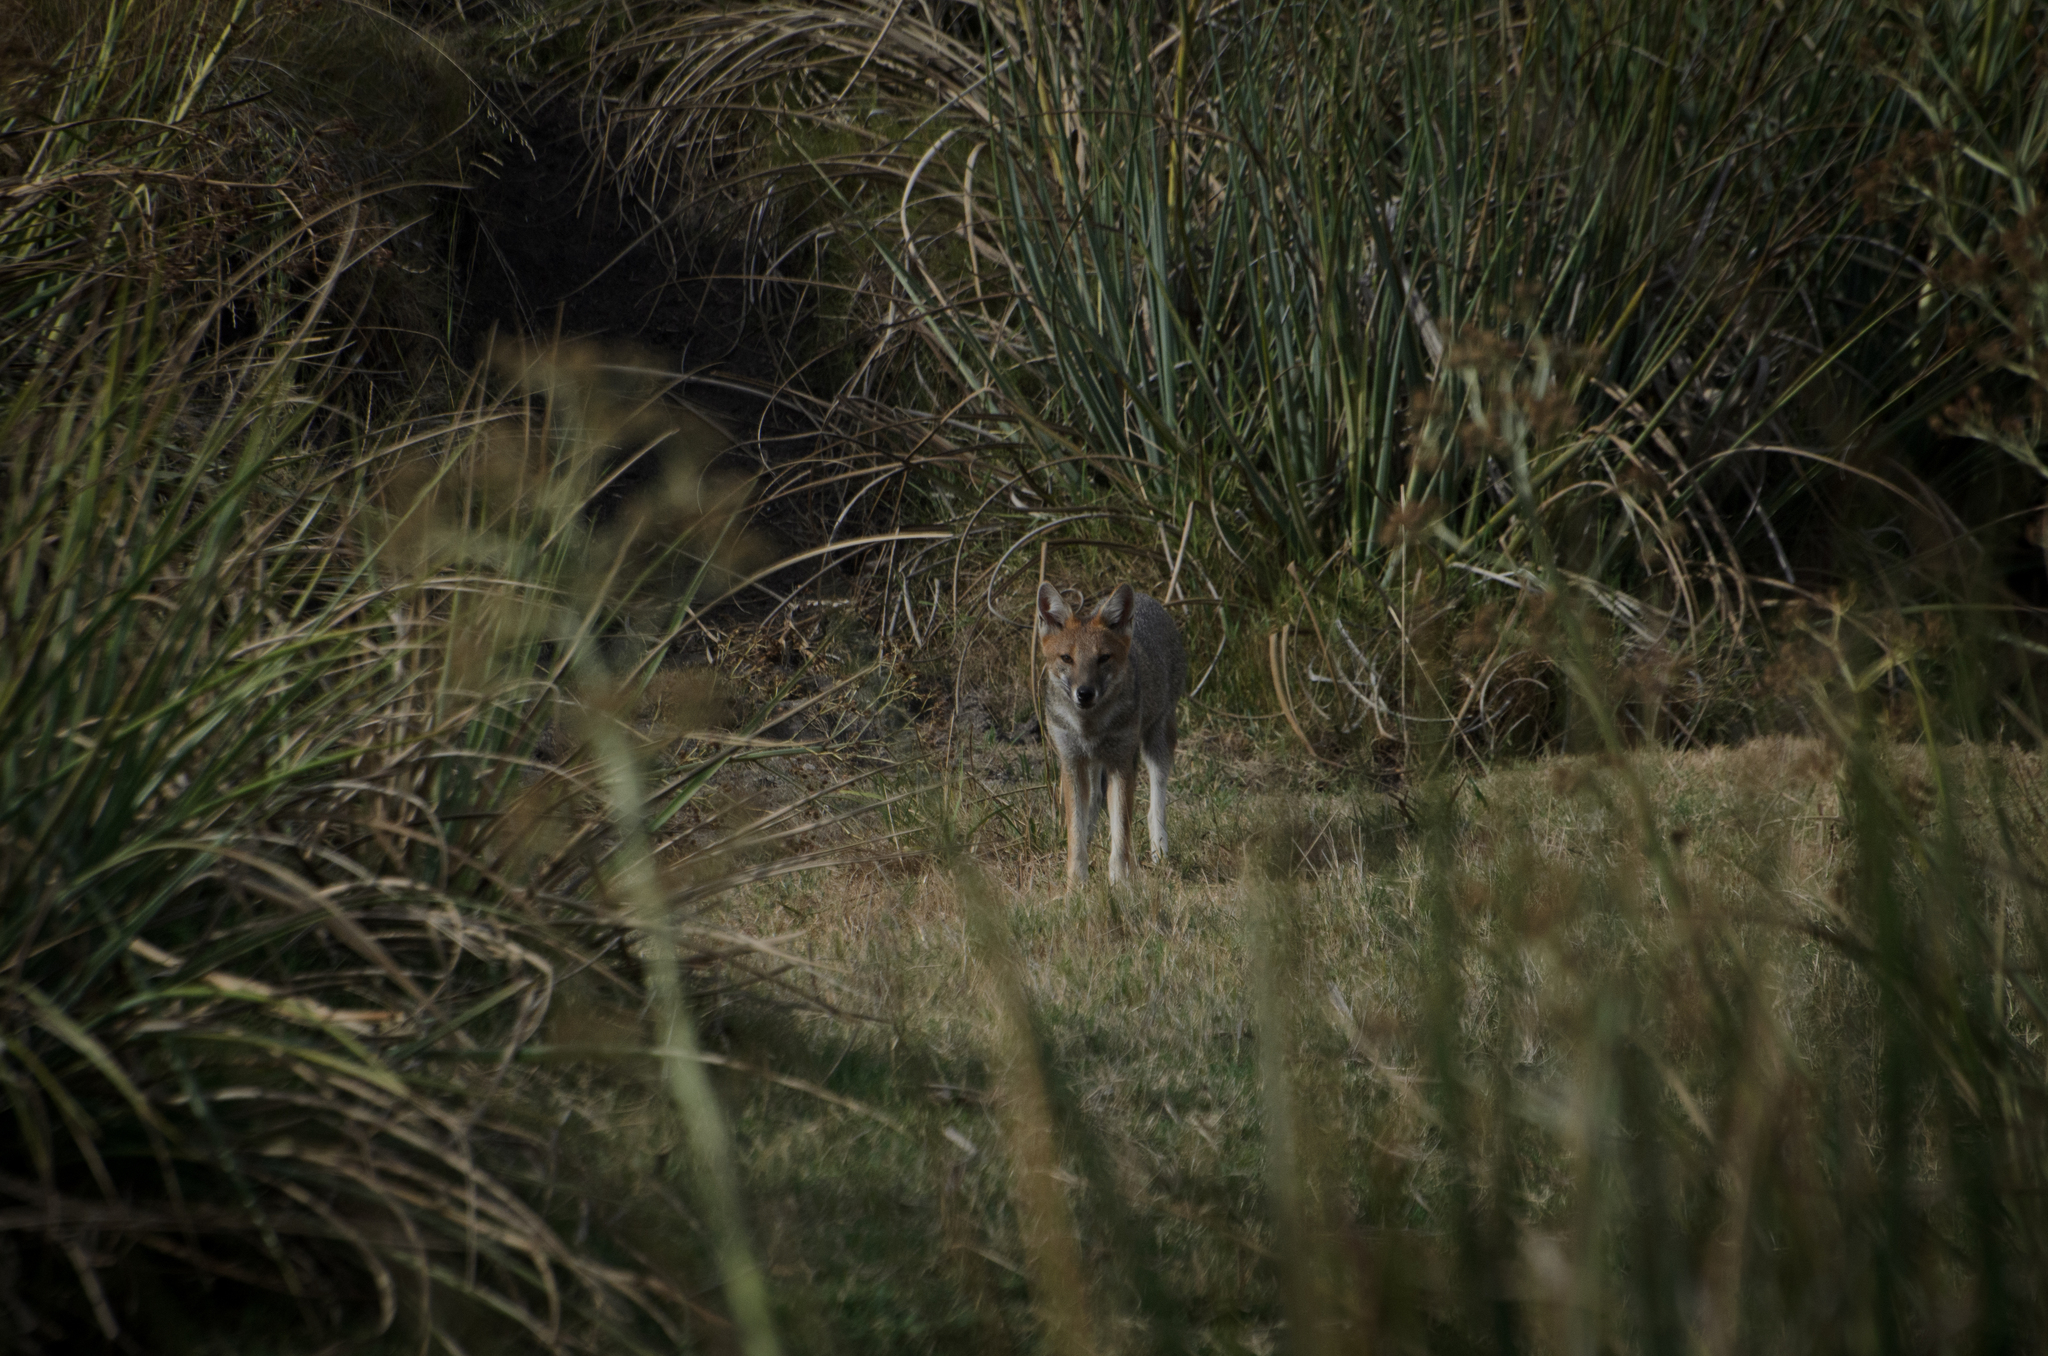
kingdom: Animalia
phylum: Chordata
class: Mammalia
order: Carnivora
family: Canidae
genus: Lycalopex
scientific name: Lycalopex gymnocercus
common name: Pampas fox
